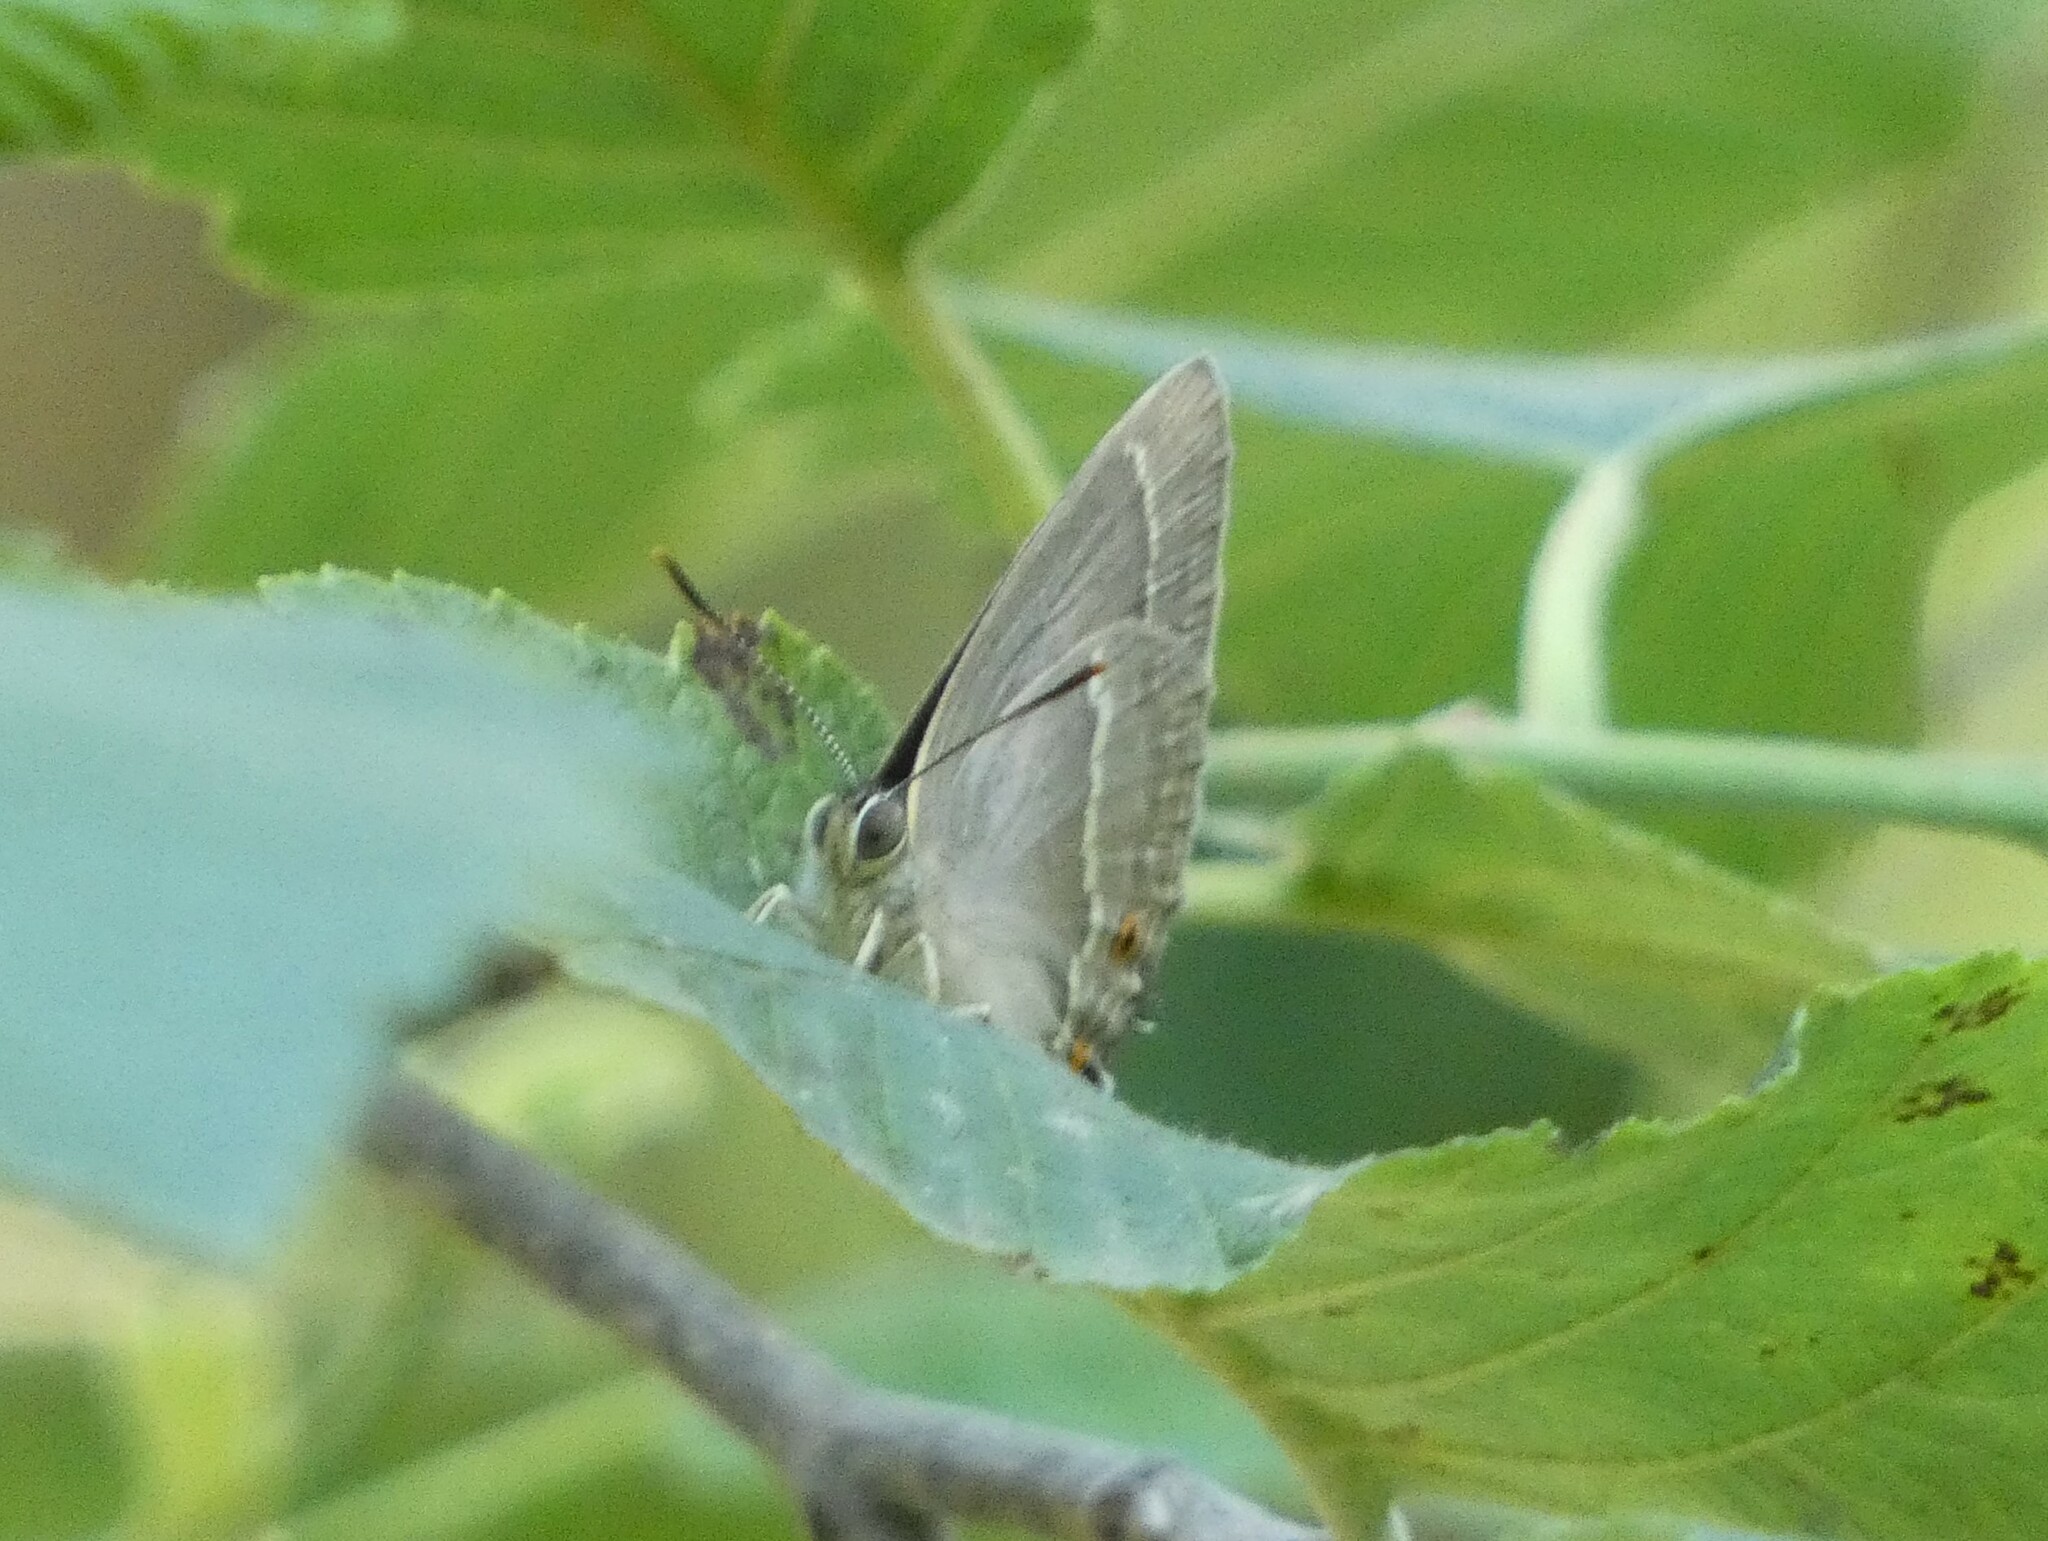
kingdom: Animalia
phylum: Arthropoda
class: Insecta
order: Lepidoptera
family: Lycaenidae
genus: Quercusia
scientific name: Quercusia quercus
